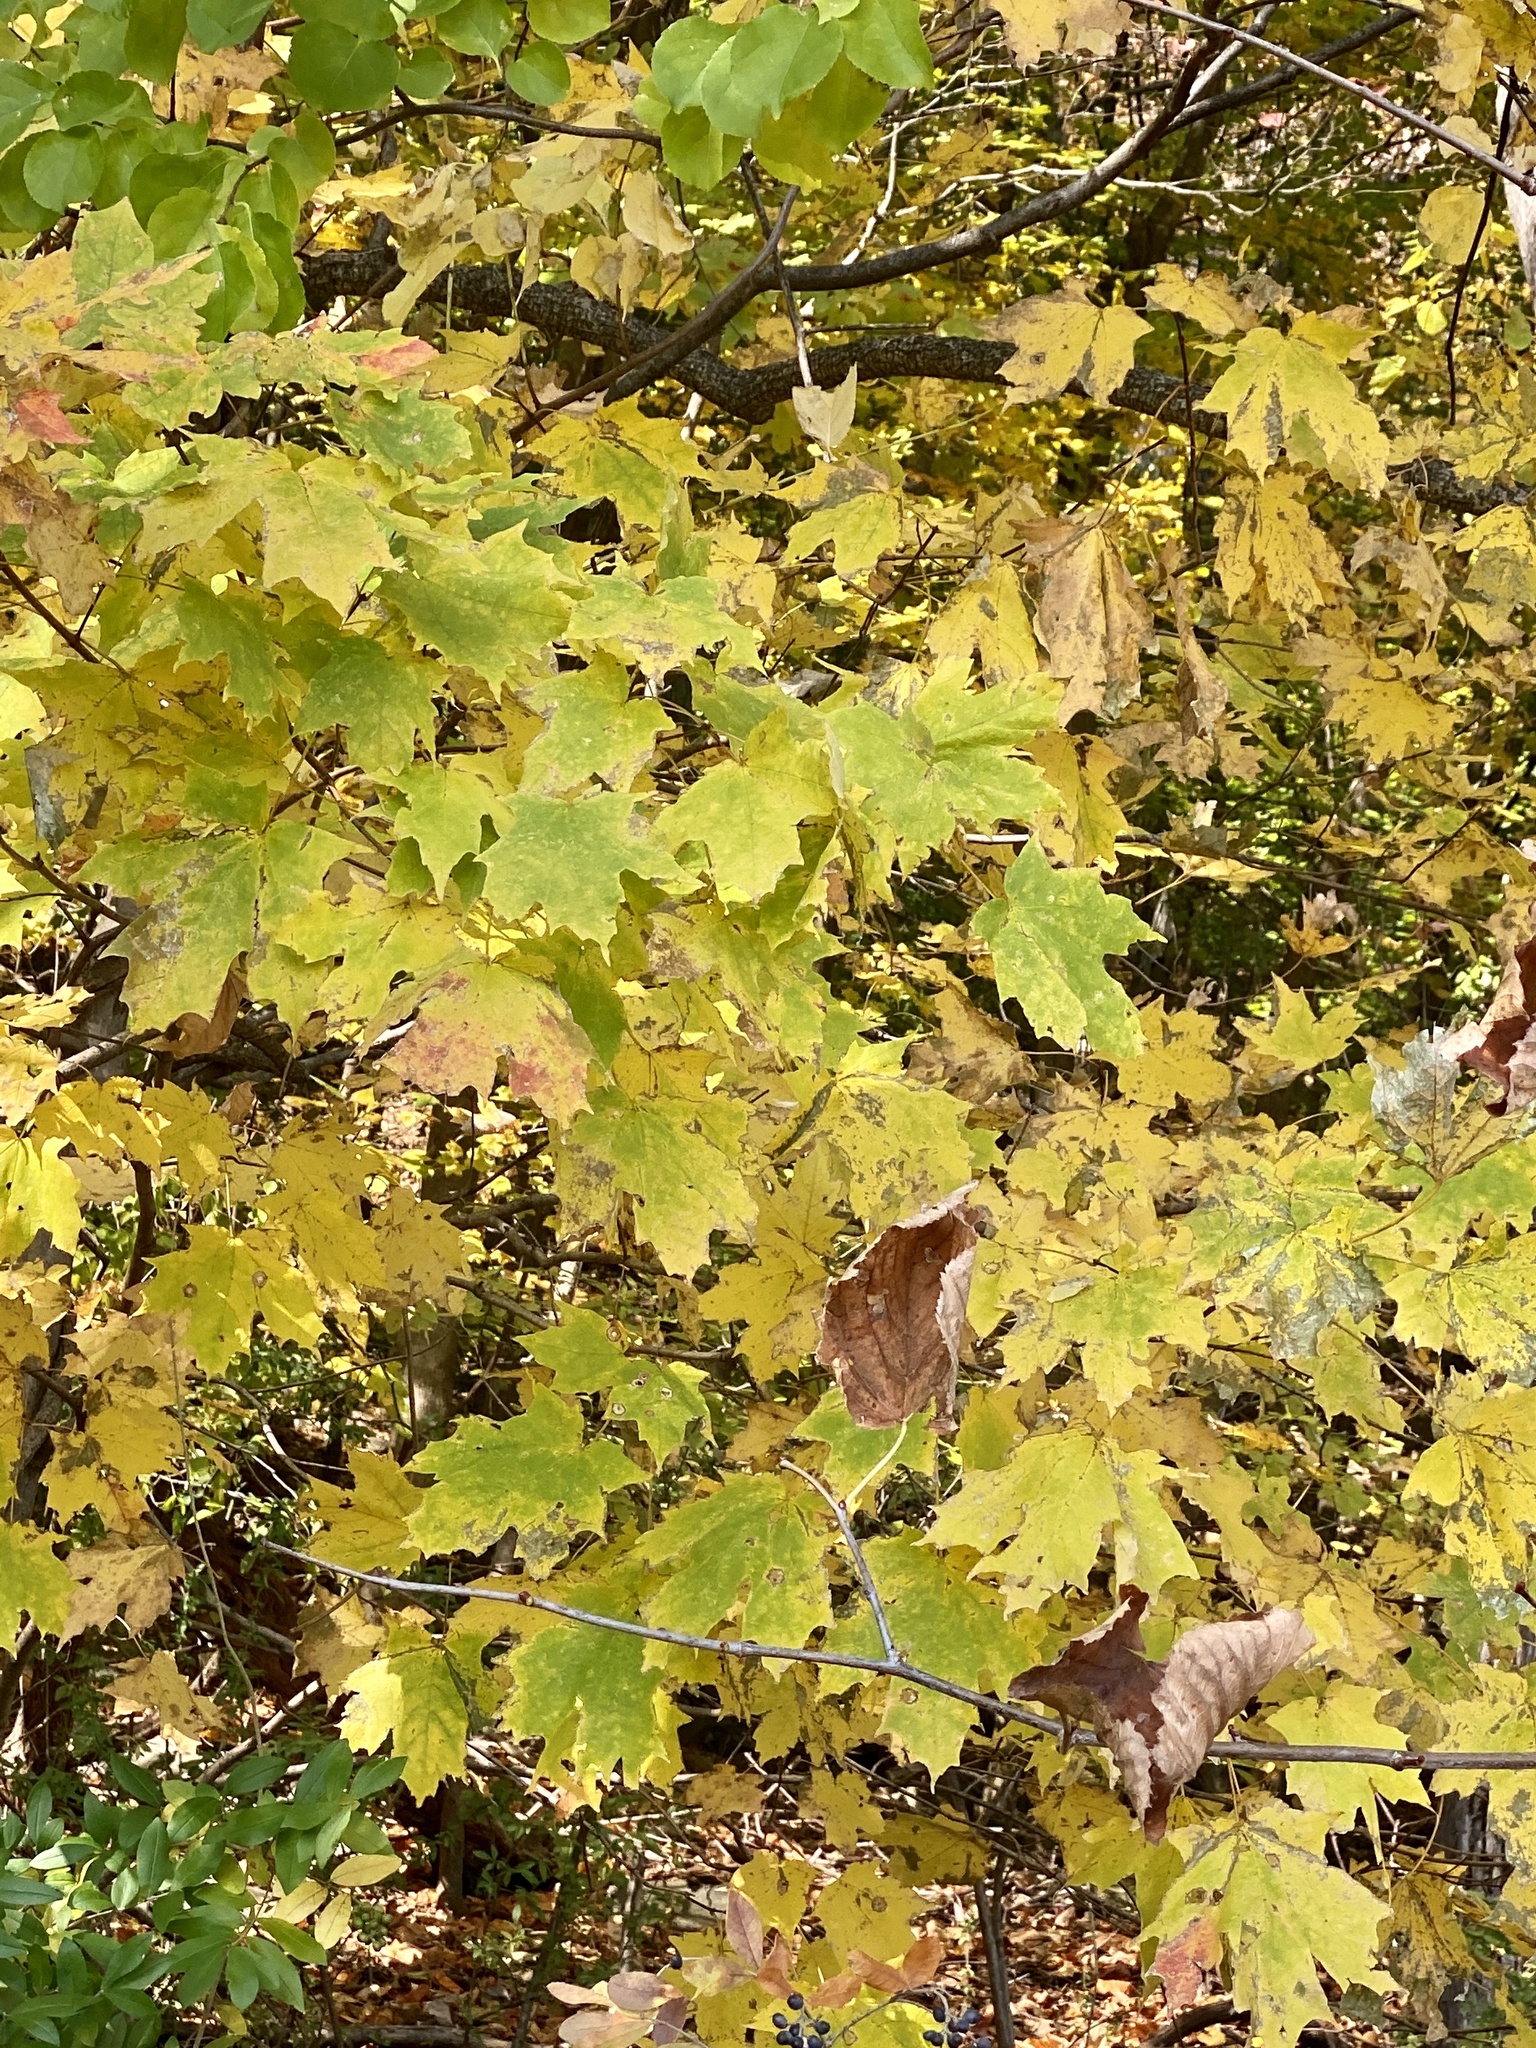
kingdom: Plantae
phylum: Tracheophyta
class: Magnoliopsida
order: Sapindales
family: Sapindaceae
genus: Acer
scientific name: Acer saccharum
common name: Sugar maple
